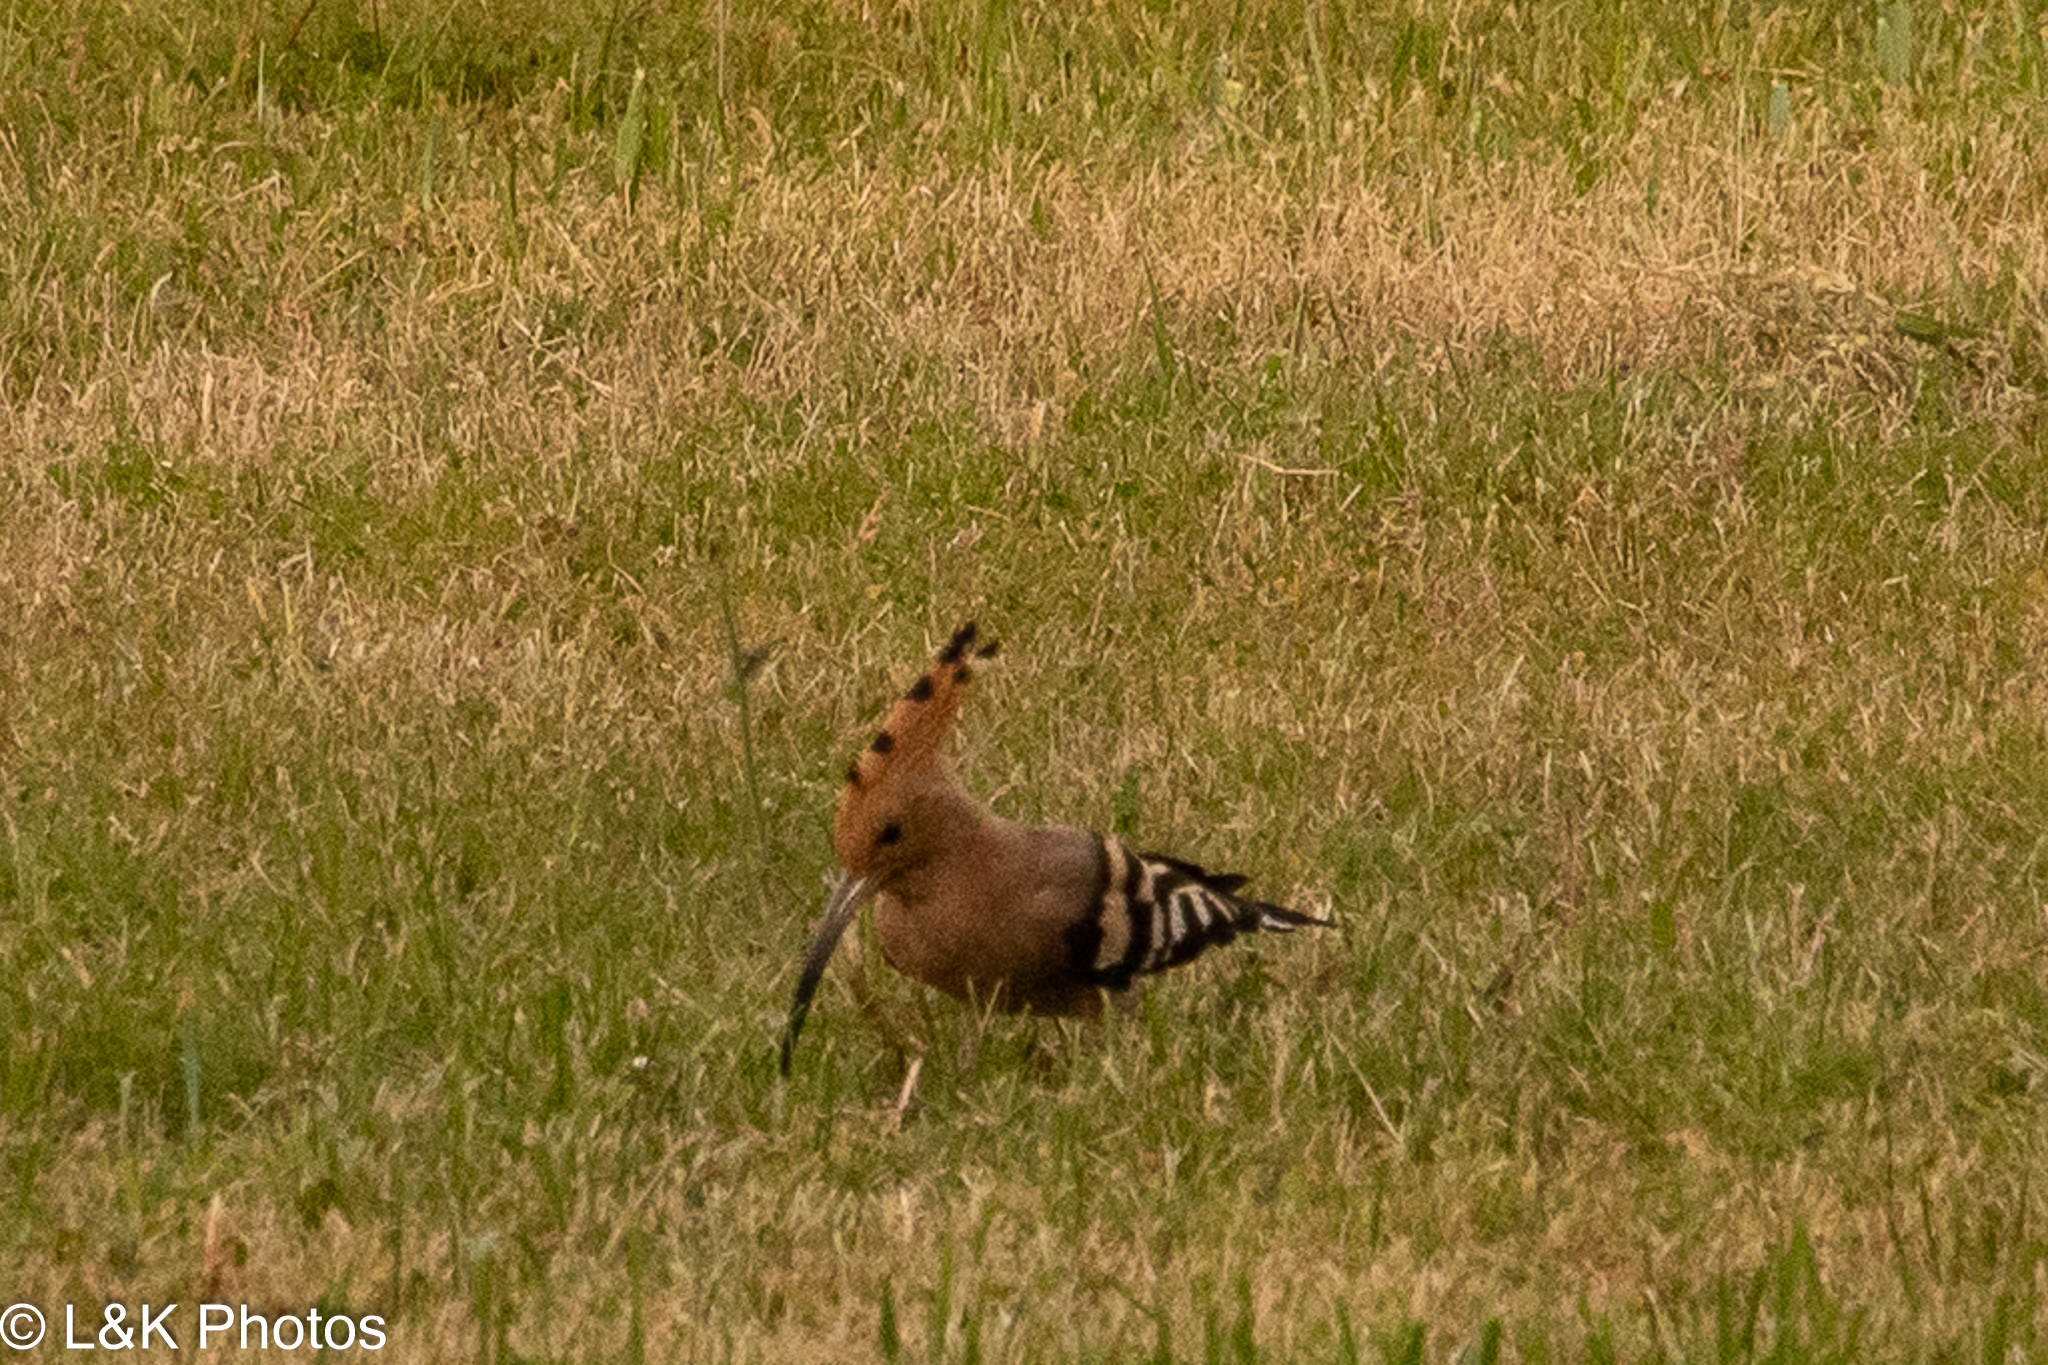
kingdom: Animalia
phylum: Chordata
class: Aves
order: Bucerotiformes
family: Upupidae
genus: Upupa
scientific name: Upupa africana
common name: African hoopoe
